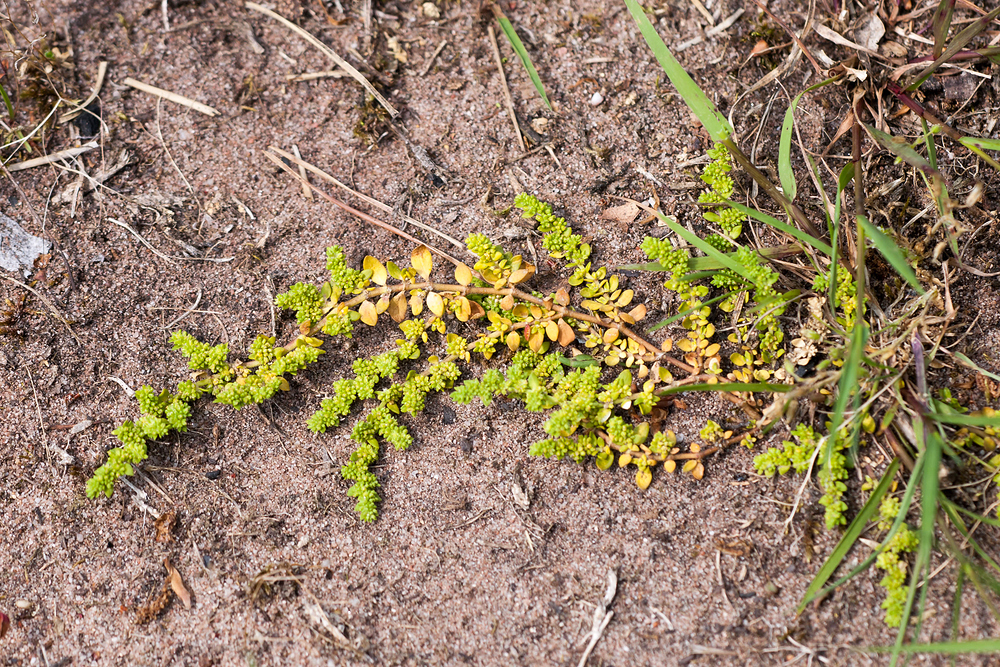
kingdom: Plantae
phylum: Tracheophyta
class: Magnoliopsida
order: Caryophyllales
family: Caryophyllaceae
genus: Herniaria
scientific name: Herniaria glabra
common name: Smooth rupturewort
